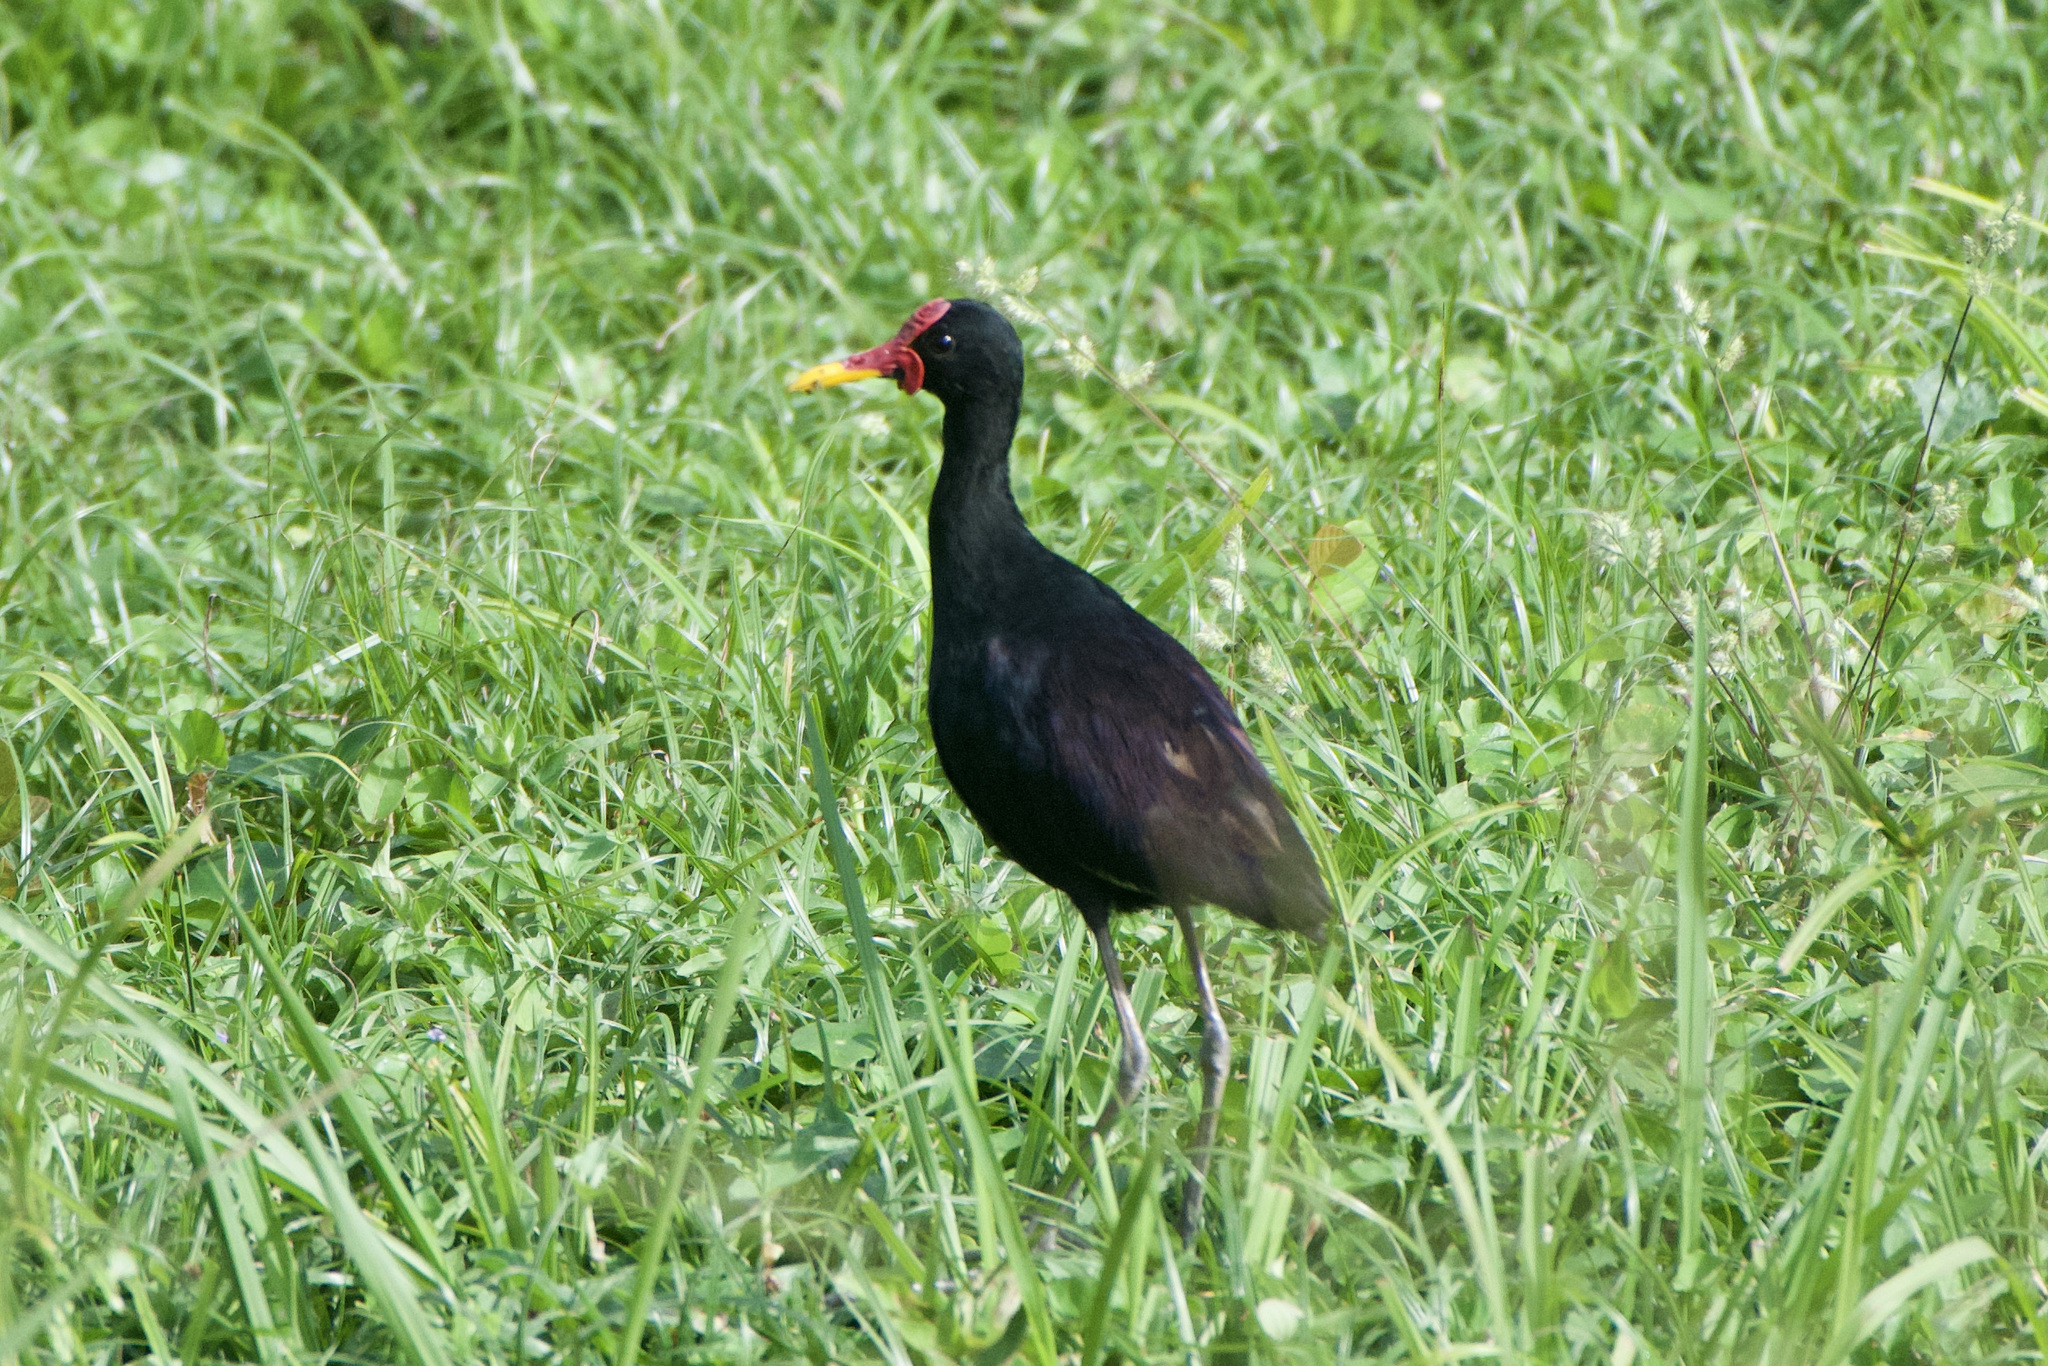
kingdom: Animalia
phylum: Chordata
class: Aves
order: Charadriiformes
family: Jacanidae
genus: Jacana
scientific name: Jacana jacana
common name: Wattled jacana
